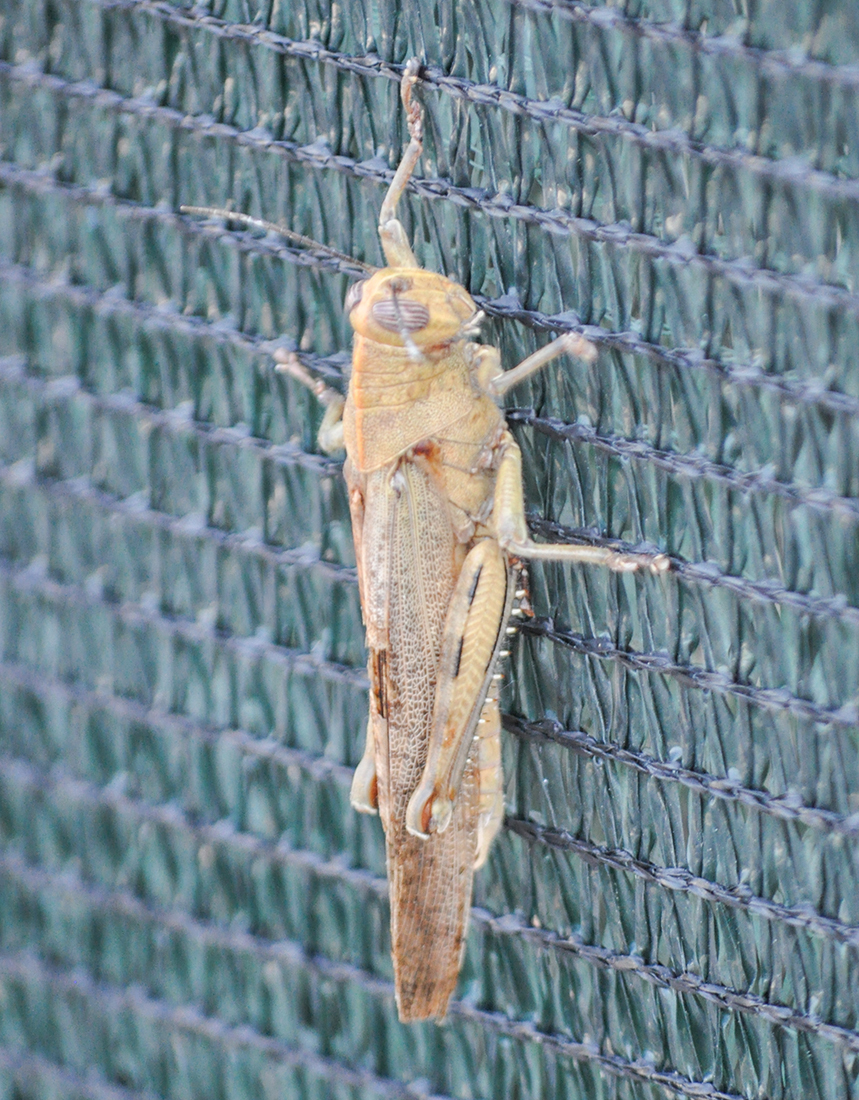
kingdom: Animalia
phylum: Arthropoda
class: Insecta
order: Orthoptera
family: Acrididae
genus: Anacridium
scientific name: Anacridium aegyptium
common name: Egyptian grasshopper
